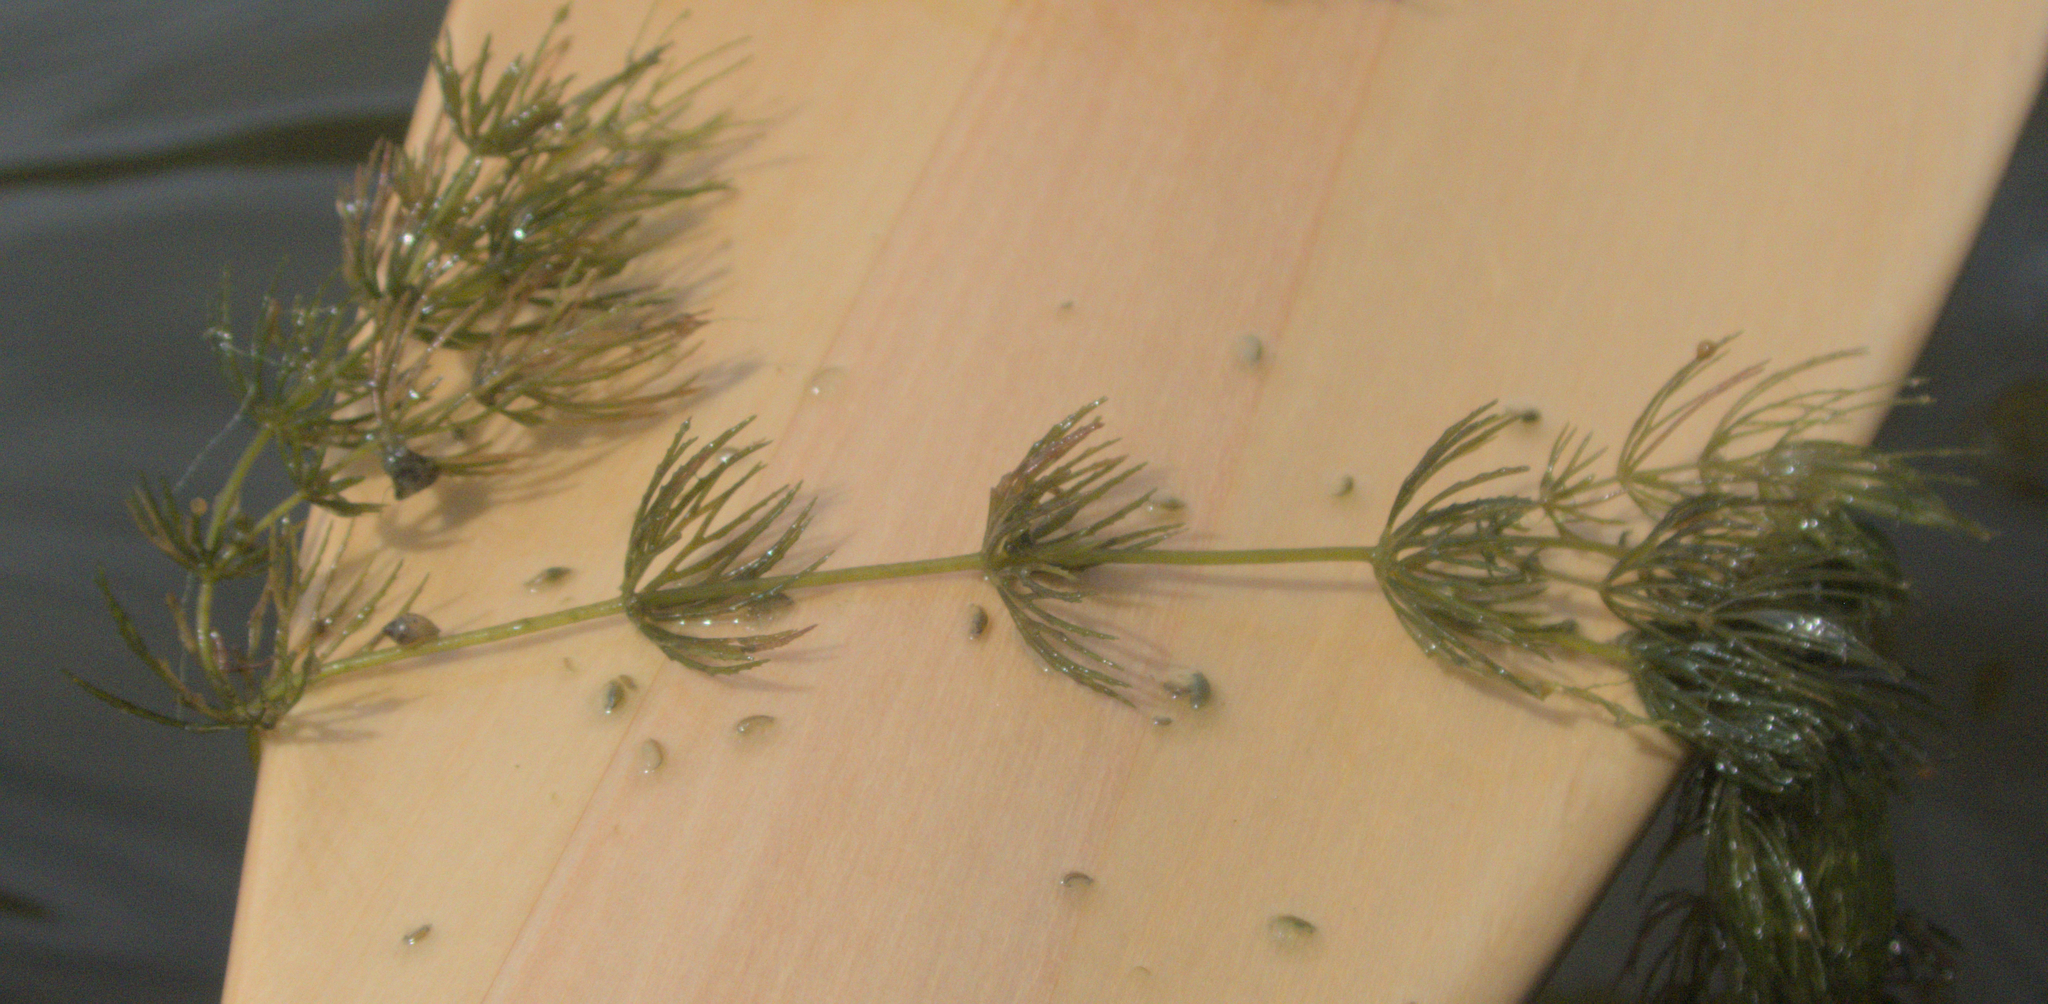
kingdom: Plantae
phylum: Tracheophyta
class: Magnoliopsida
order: Ceratophyllales
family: Ceratophyllaceae
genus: Ceratophyllum
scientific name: Ceratophyllum demersum
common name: Rigid hornwort
